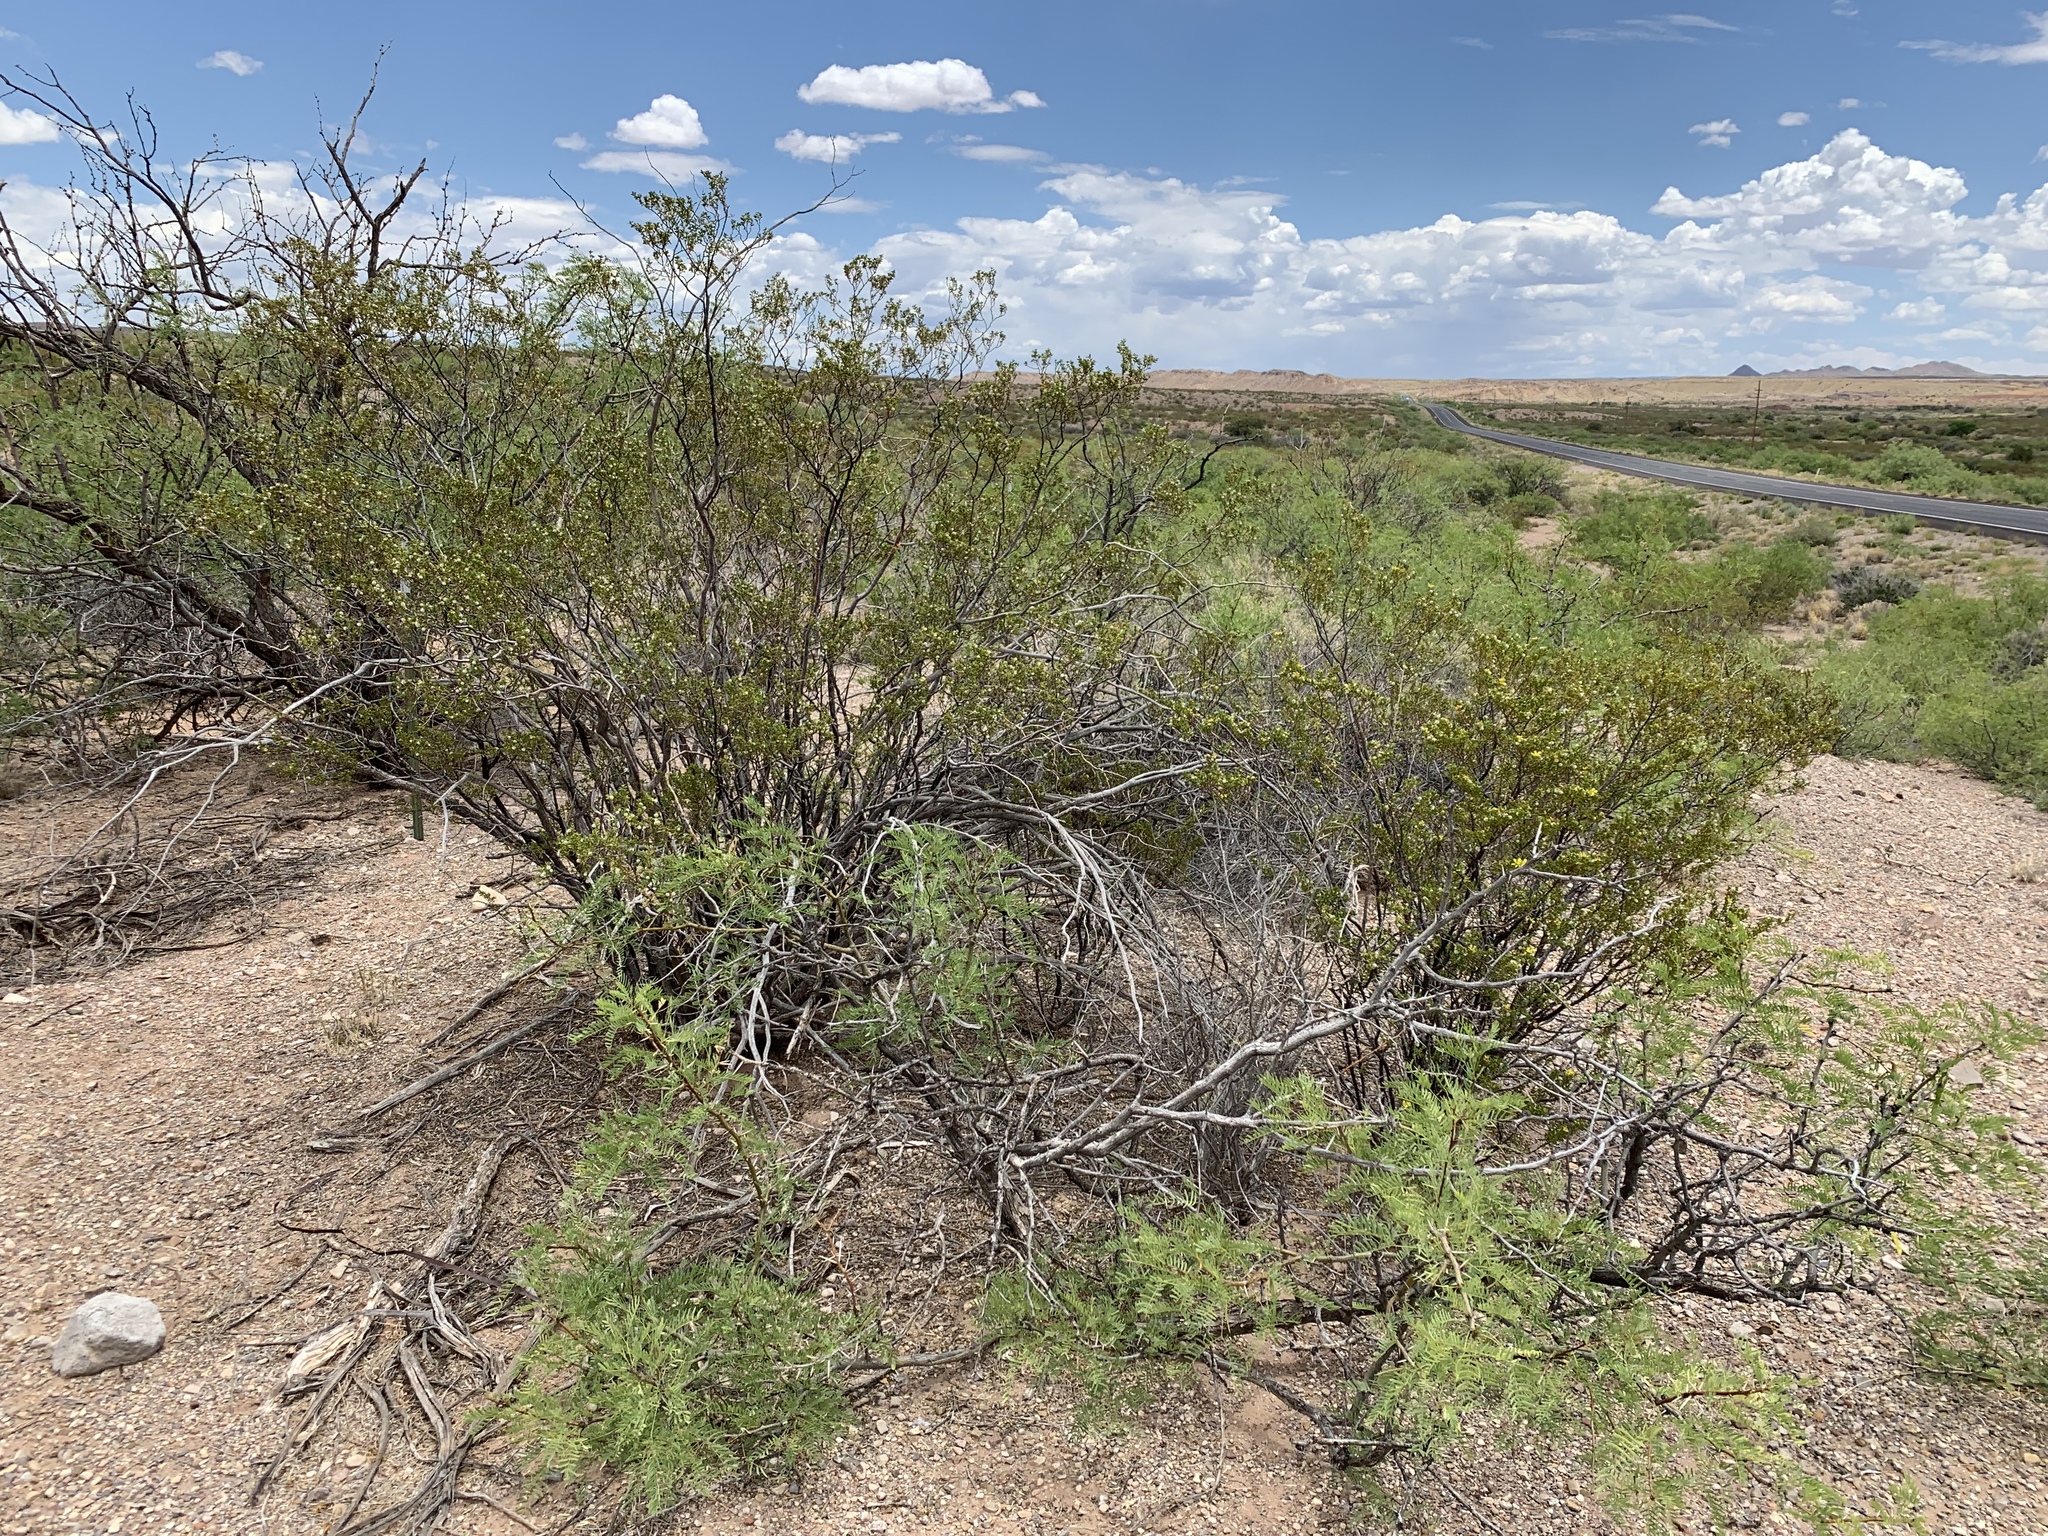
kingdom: Plantae
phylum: Tracheophyta
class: Magnoliopsida
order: Fabales
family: Fabaceae
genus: Prosopis
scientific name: Prosopis glandulosa
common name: Honey mesquite
